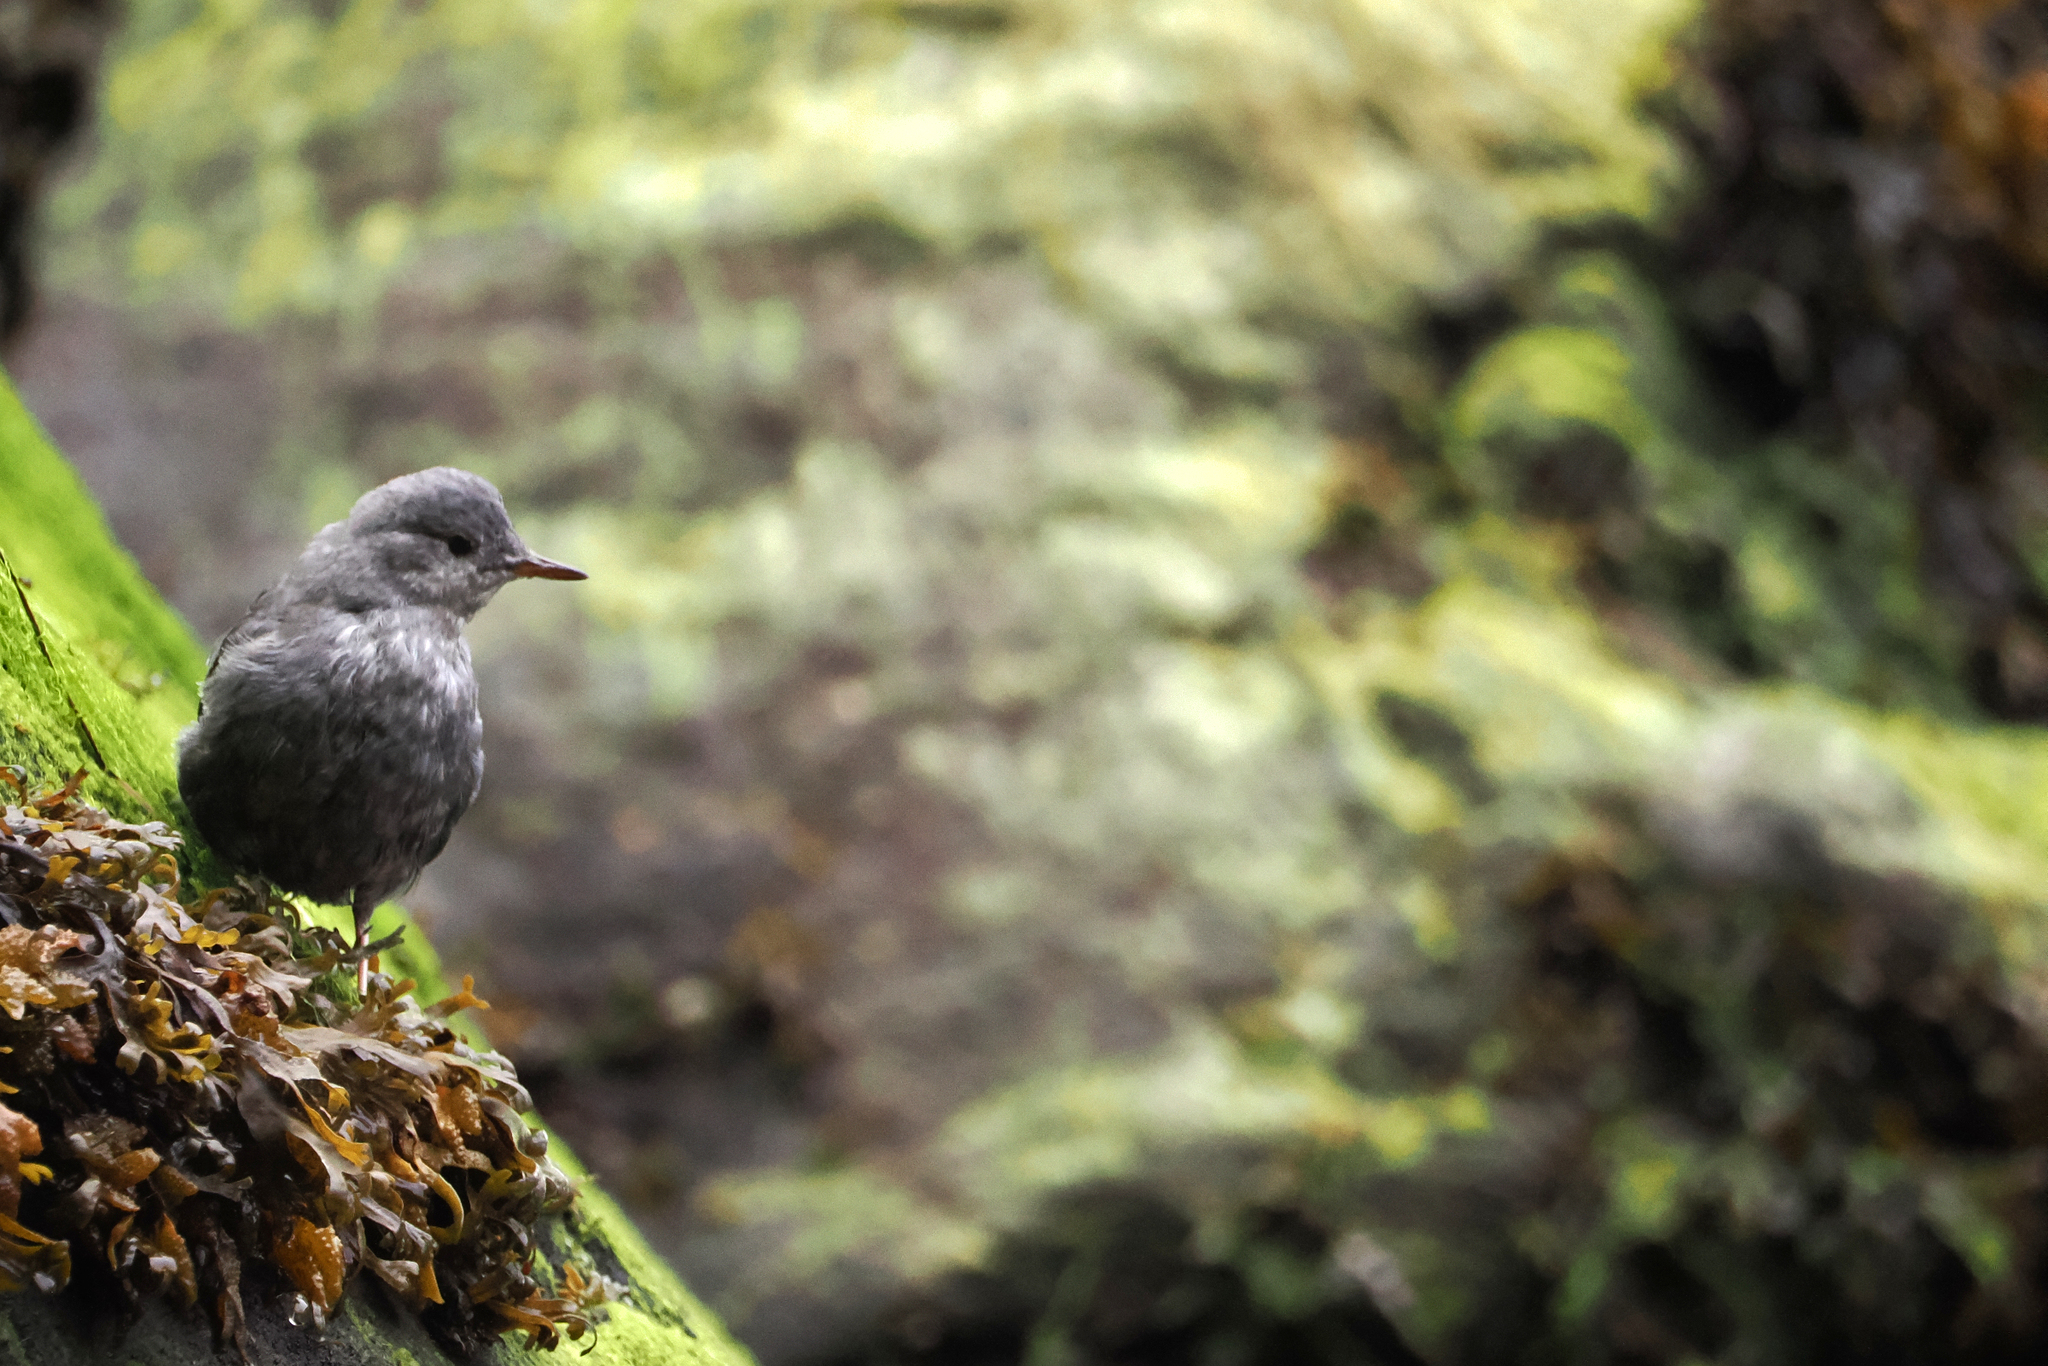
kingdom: Animalia
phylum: Chordata
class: Aves
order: Passeriformes
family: Cinclidae
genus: Cinclus
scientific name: Cinclus mexicanus
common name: American dipper
